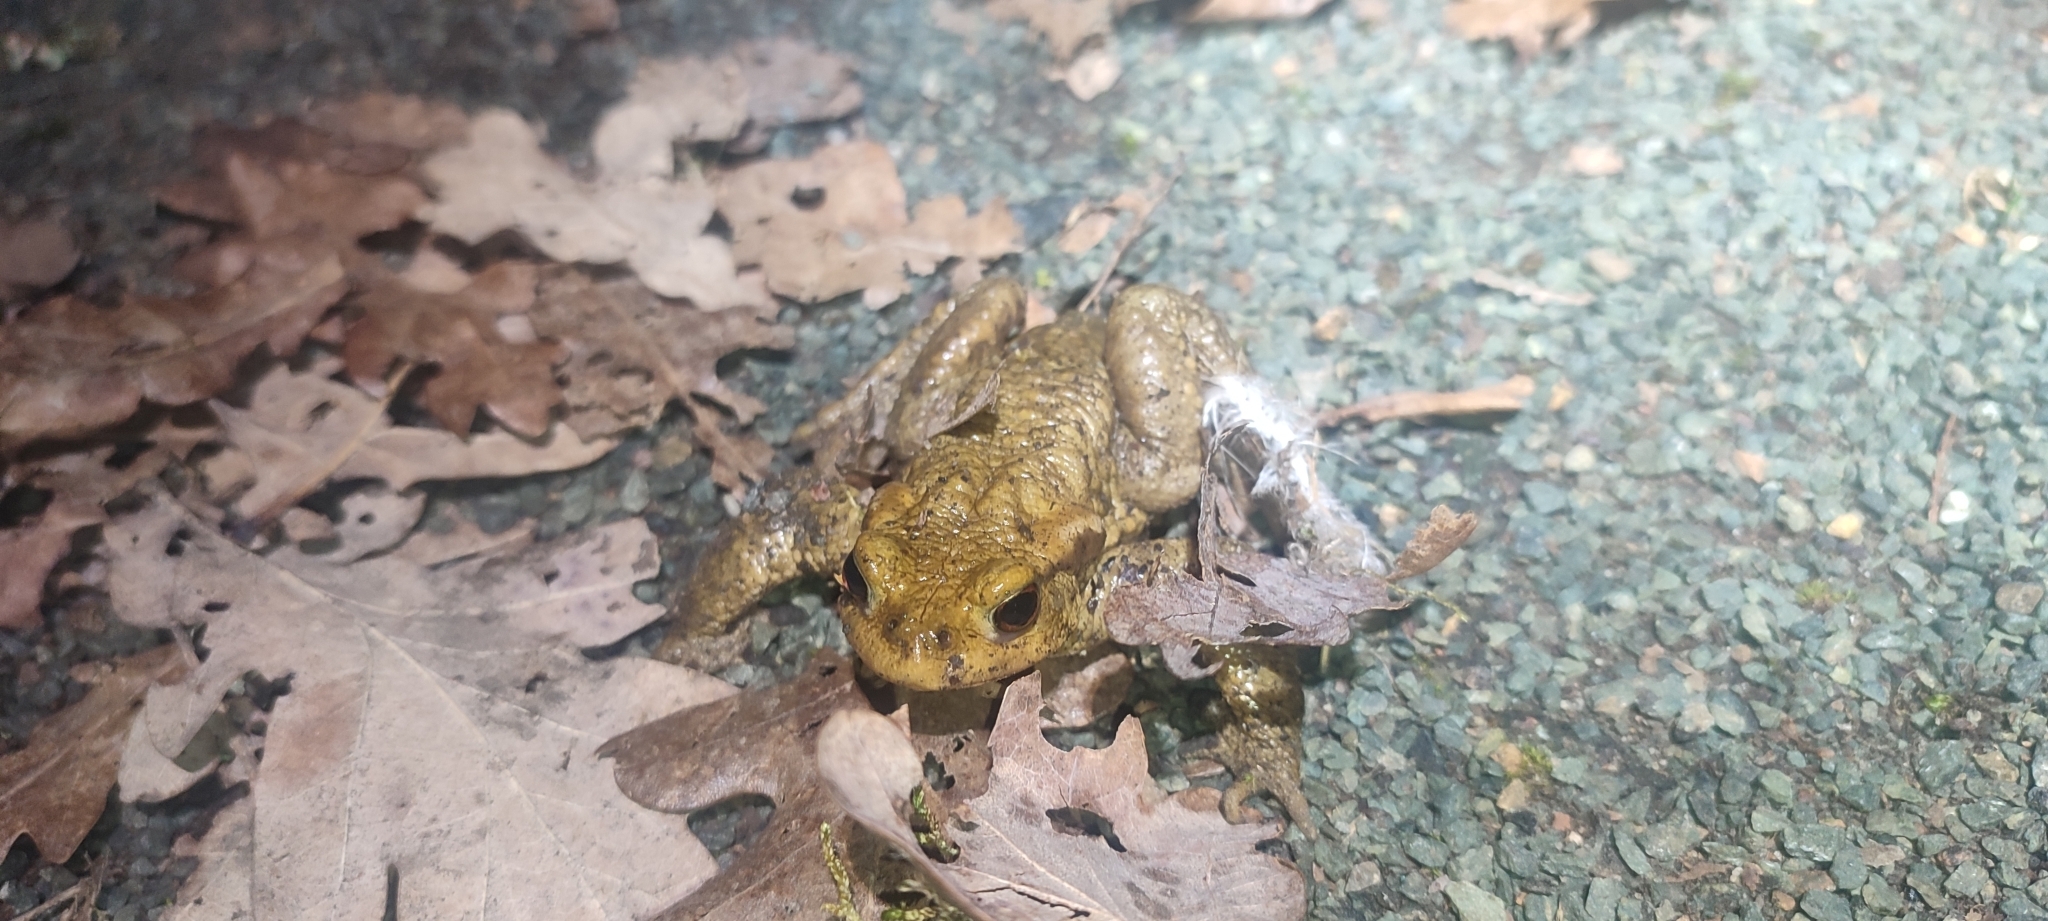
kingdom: Animalia
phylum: Chordata
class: Amphibia
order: Anura
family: Bufonidae
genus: Bufo
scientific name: Bufo spinosus
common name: Western common toad
